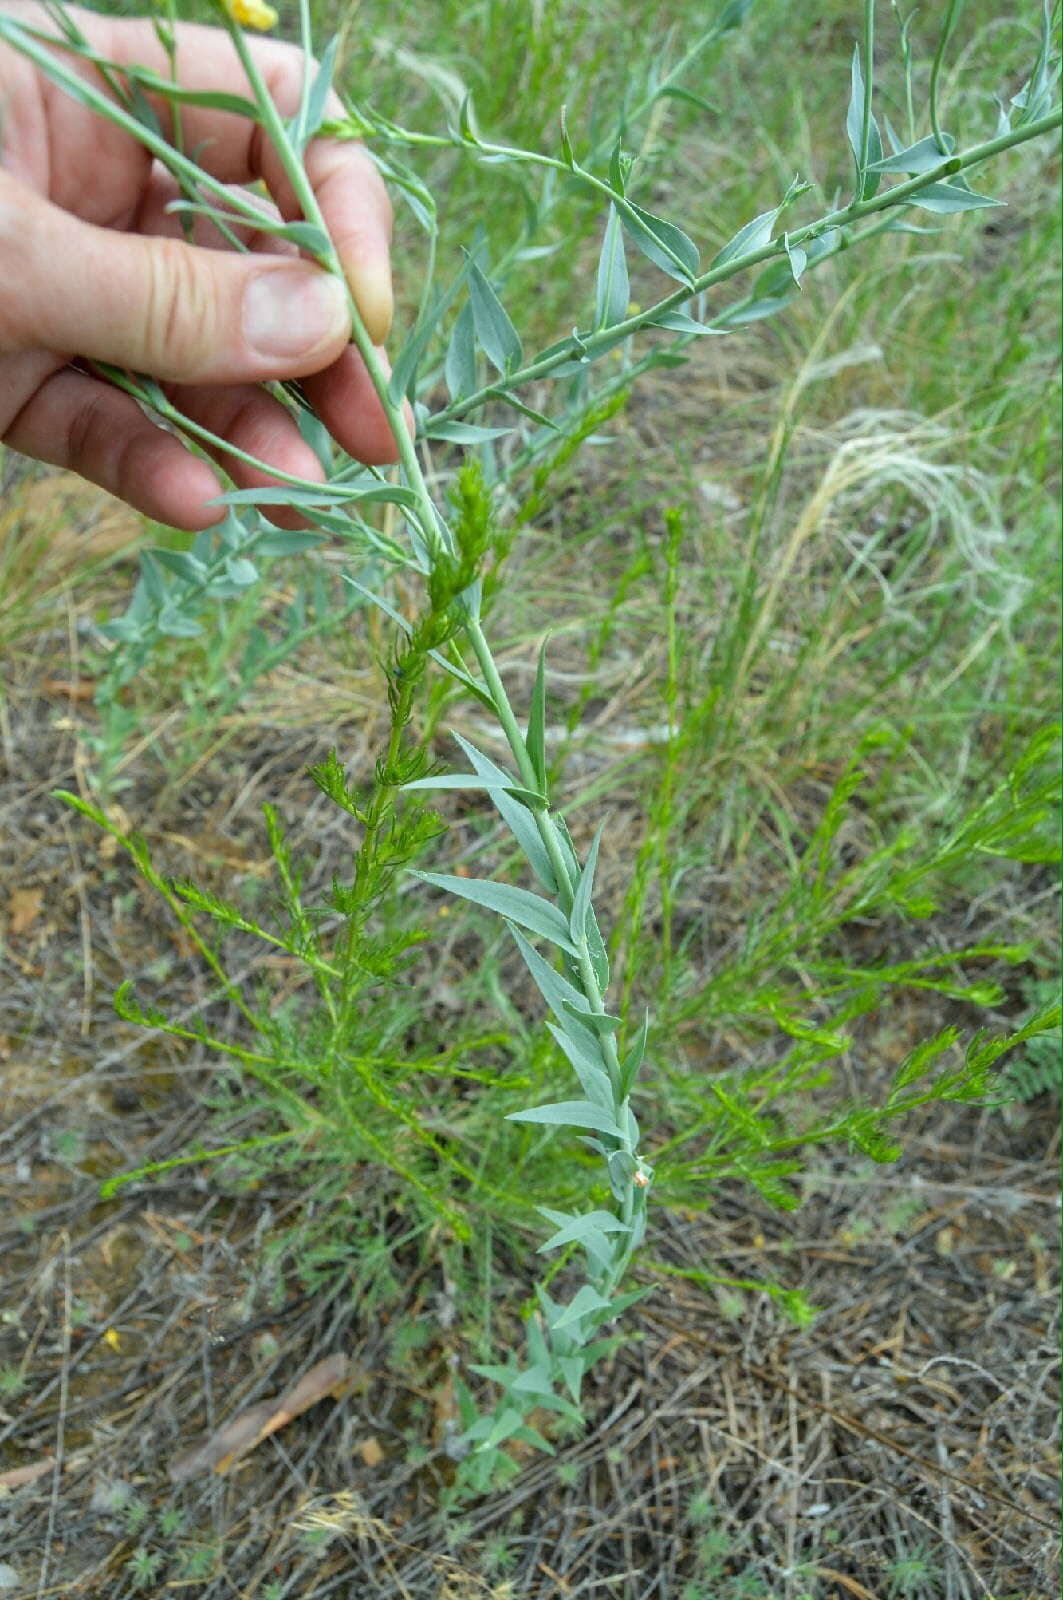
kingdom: Plantae
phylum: Tracheophyta
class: Magnoliopsida
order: Lamiales
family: Plantaginaceae
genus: Linaria
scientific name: Linaria genistifolia
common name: Broomleaf toadflax
